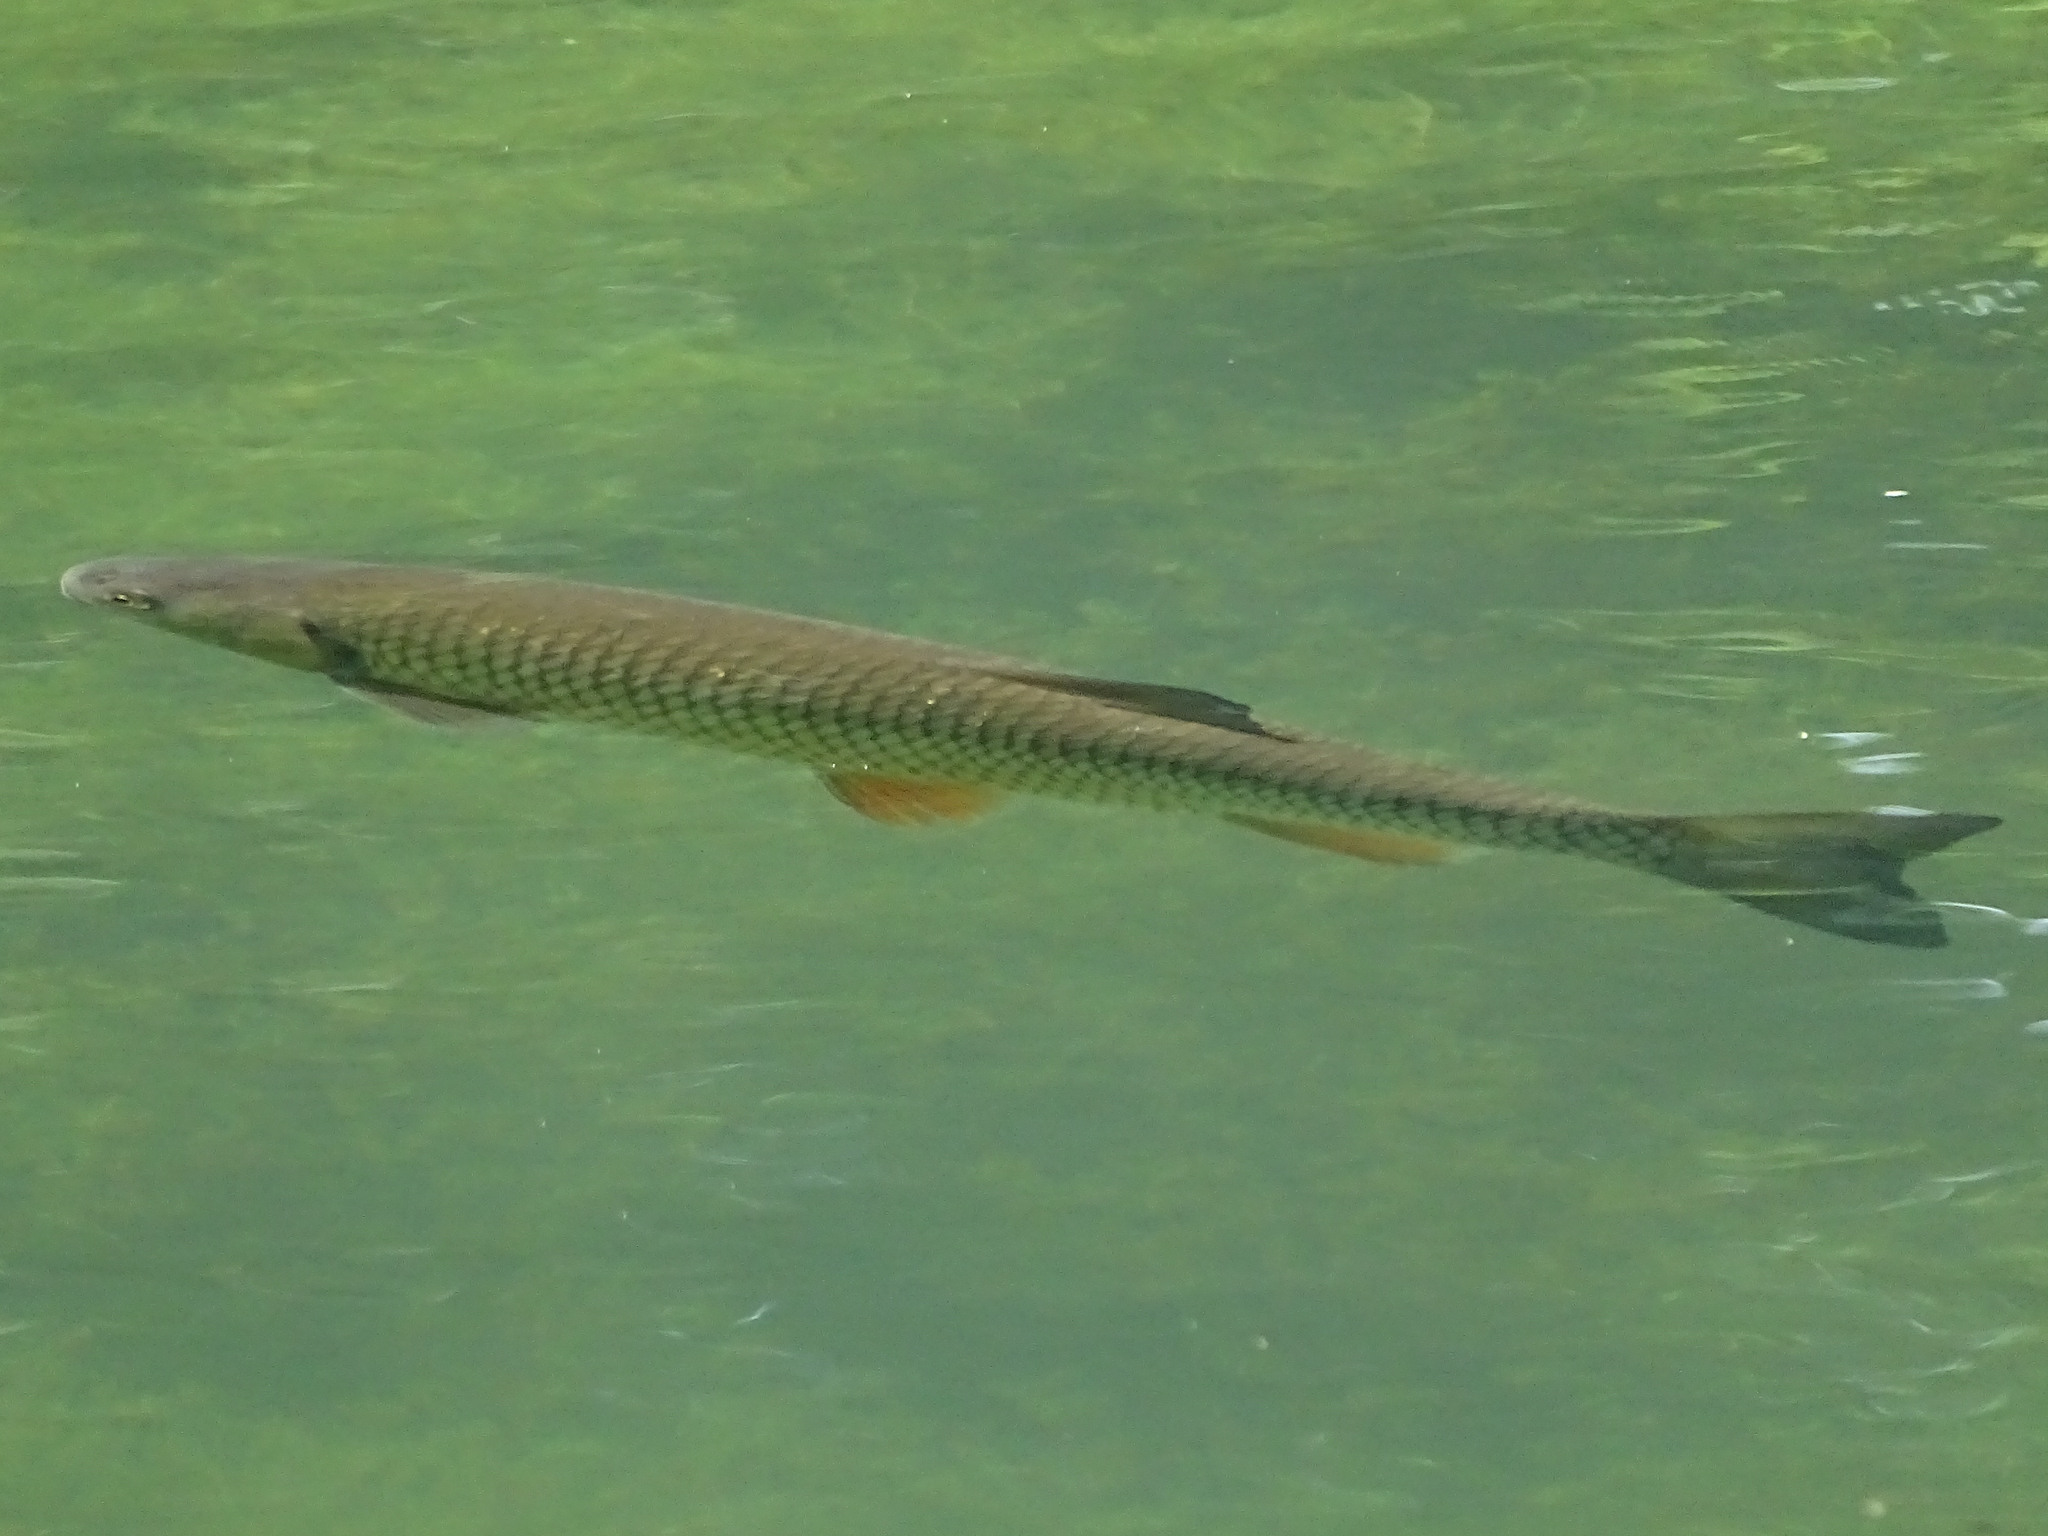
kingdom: Animalia
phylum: Chordata
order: Cypriniformes
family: Cyprinidae
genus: Squalius
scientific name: Squalius cephalus
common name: Chub
